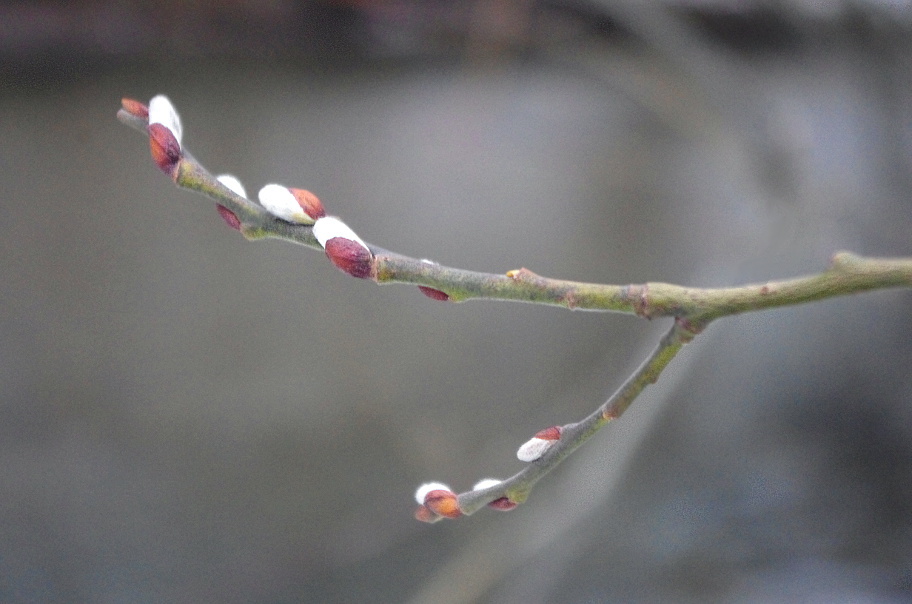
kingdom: Plantae
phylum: Tracheophyta
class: Magnoliopsida
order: Malpighiales
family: Salicaceae
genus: Salix
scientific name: Salix caprea
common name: Goat willow
